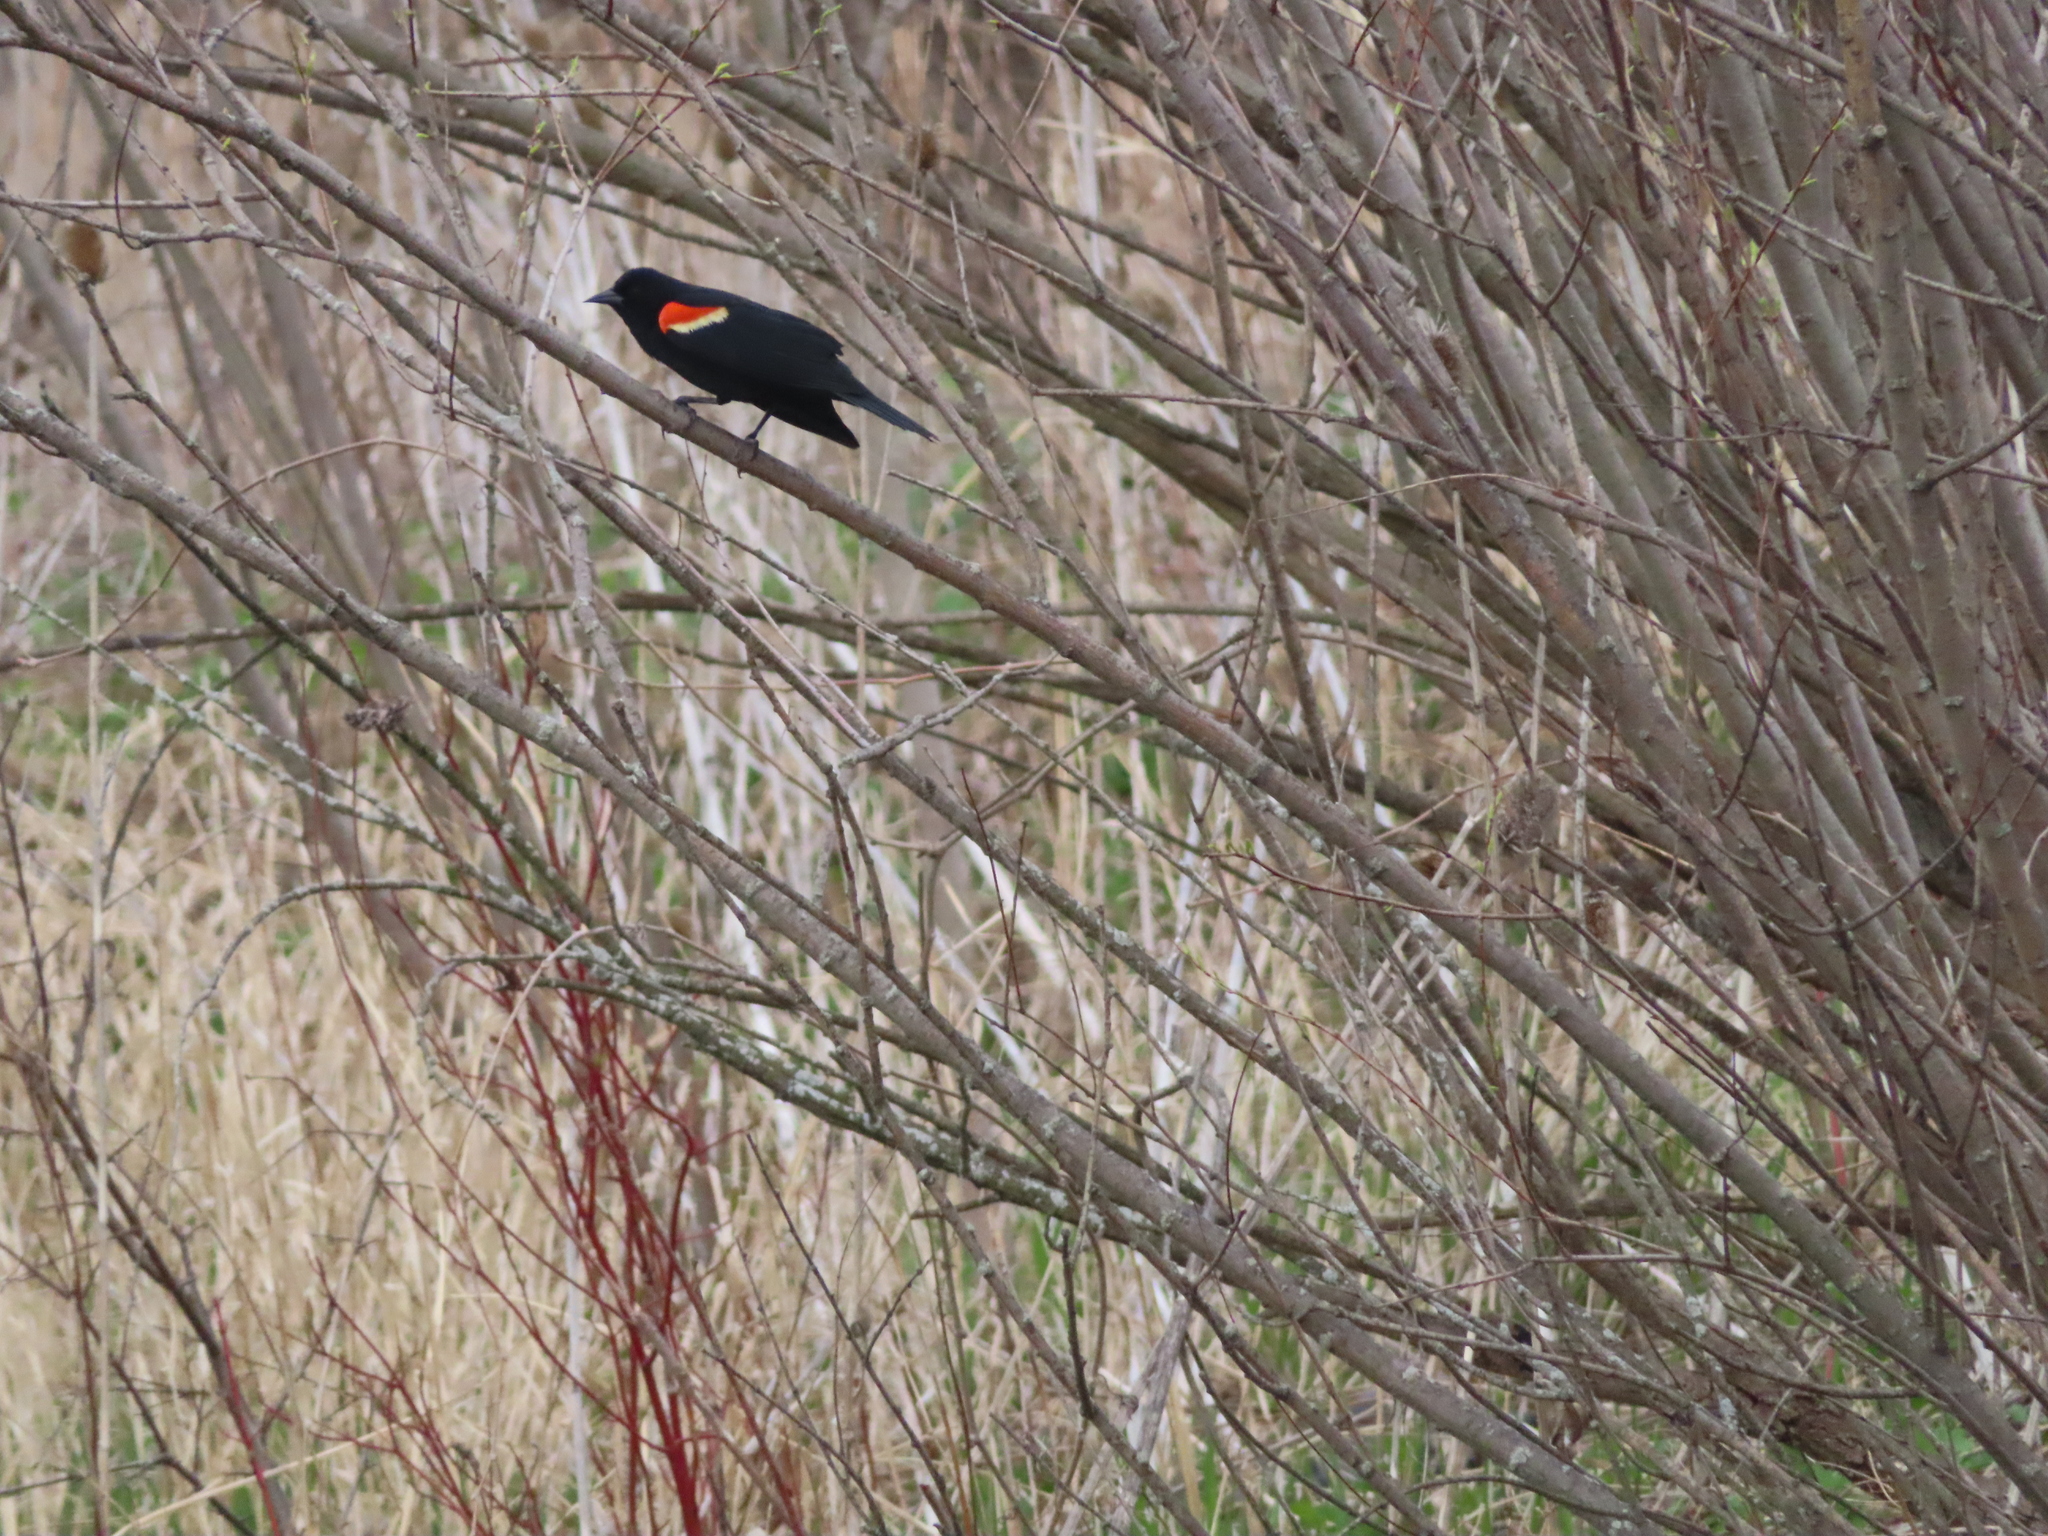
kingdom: Animalia
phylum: Chordata
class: Aves
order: Passeriformes
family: Icteridae
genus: Agelaius
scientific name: Agelaius phoeniceus
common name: Red-winged blackbird
